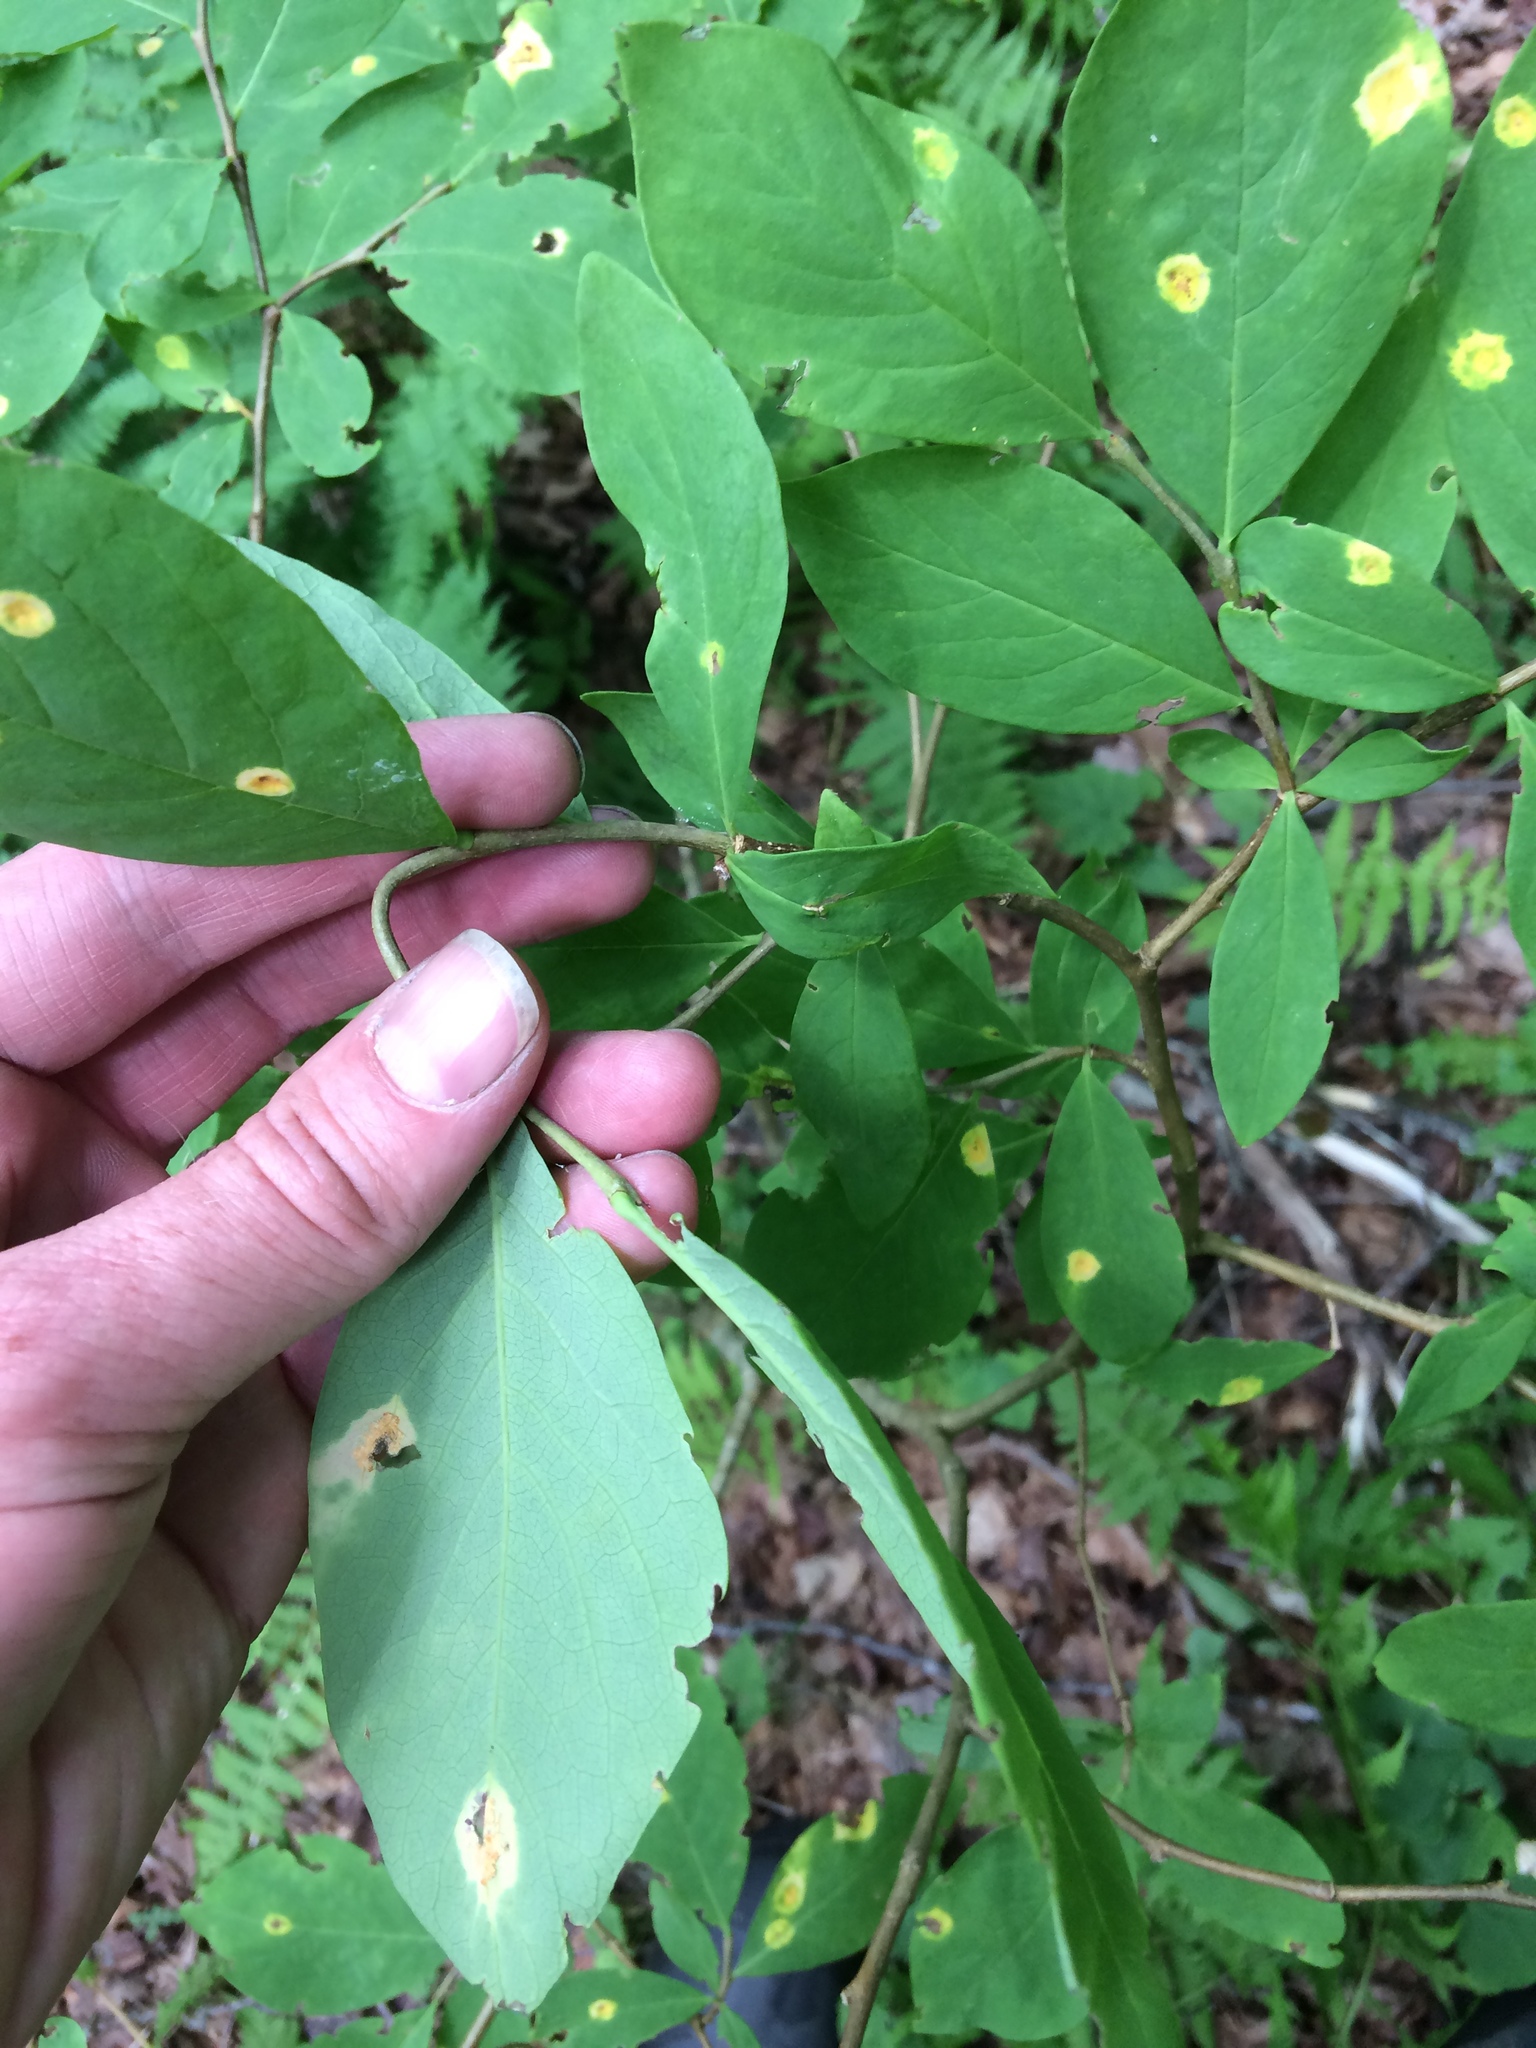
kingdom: Plantae
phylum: Tracheophyta
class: Magnoliopsida
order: Malvales
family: Thymelaeaceae
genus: Dirca
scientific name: Dirca palustris
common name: Leatherwood
